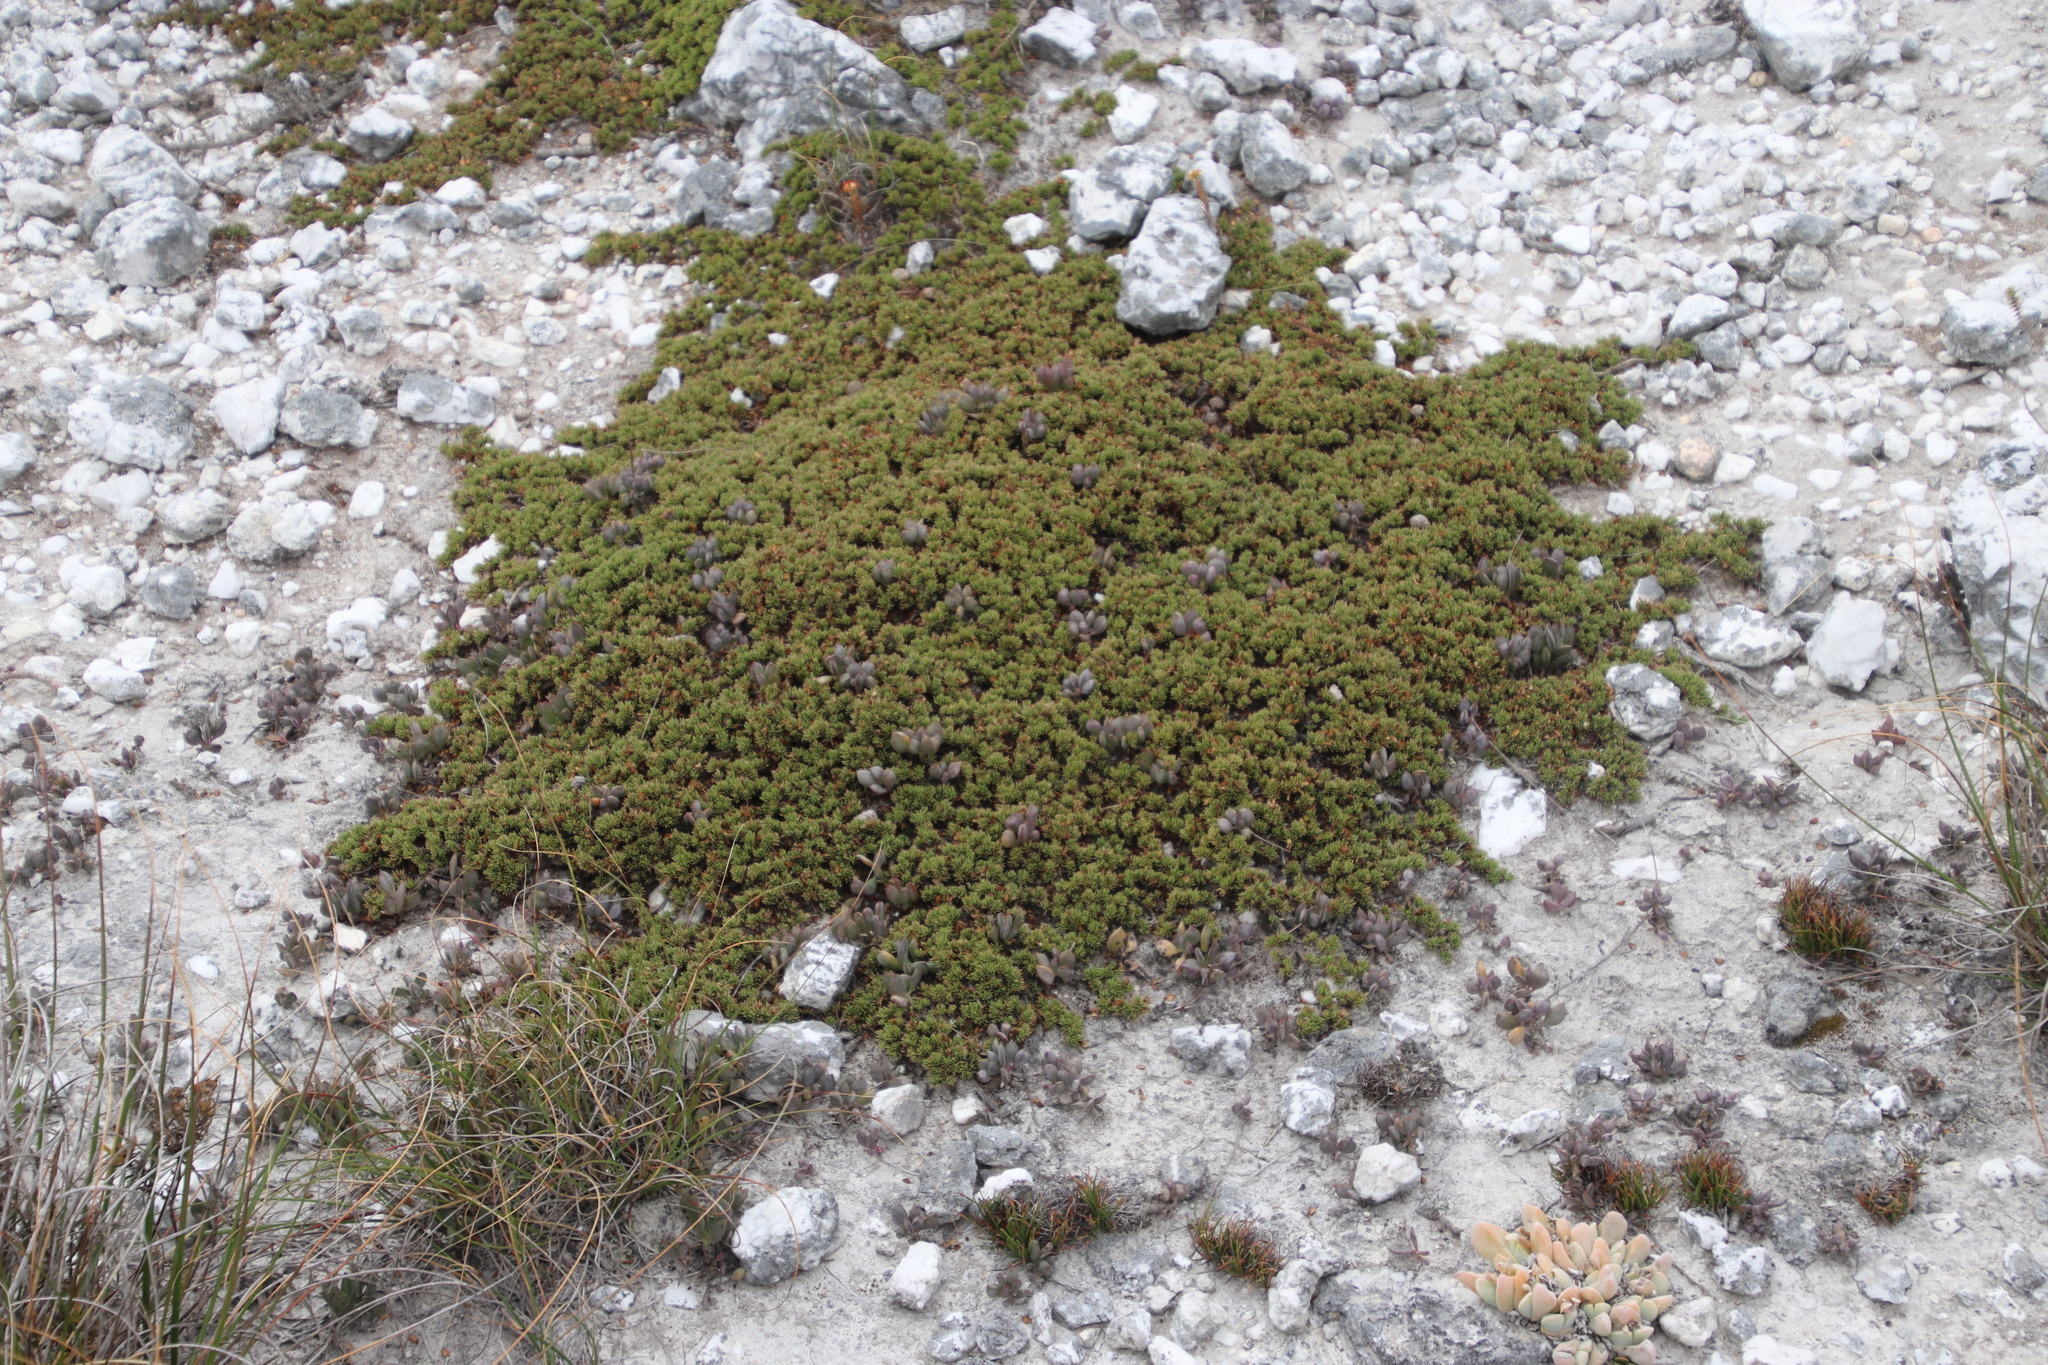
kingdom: Plantae
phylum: Tracheophyta
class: Magnoliopsida
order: Fabales
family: Fabaceae
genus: Aspalathus
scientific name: Aspalathus quartzicola
